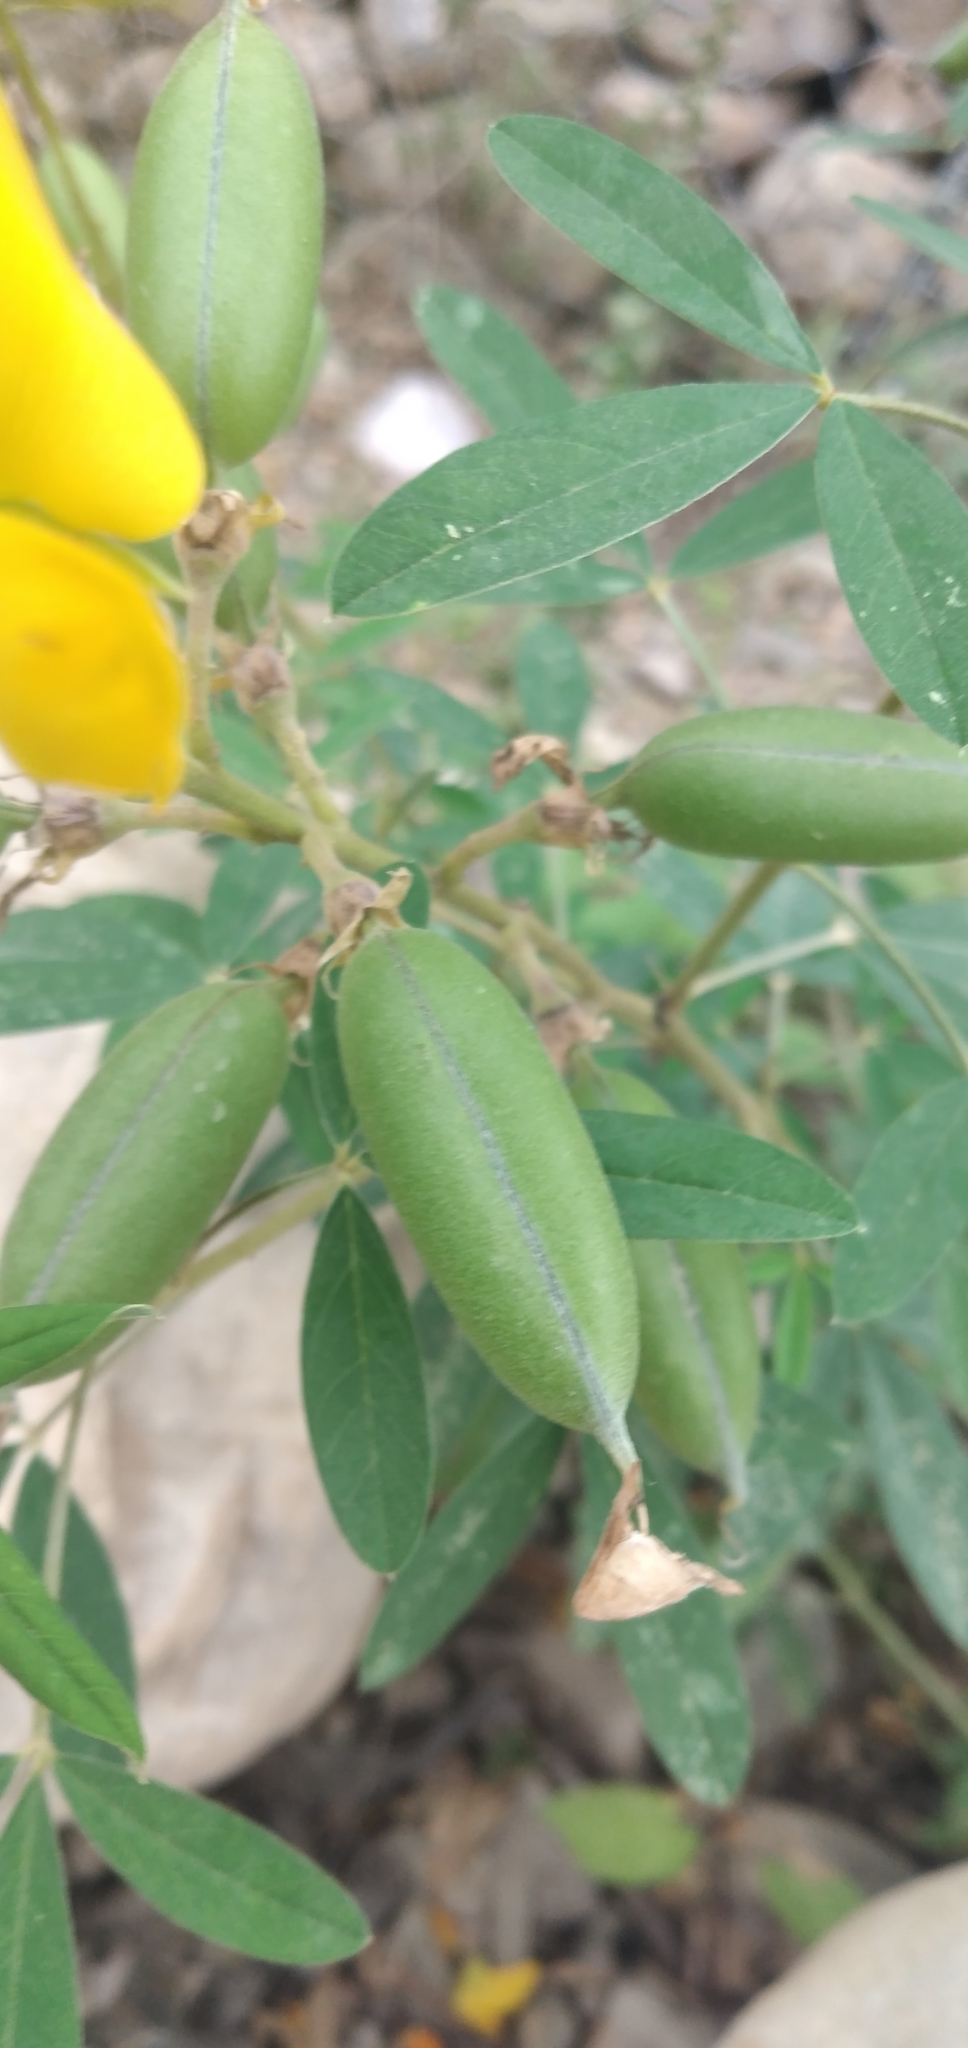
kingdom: Plantae
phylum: Tracheophyta
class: Magnoliopsida
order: Fabales
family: Fabaceae
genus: Crotalaria
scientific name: Crotalaria micans
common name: Caracas rattlebox
